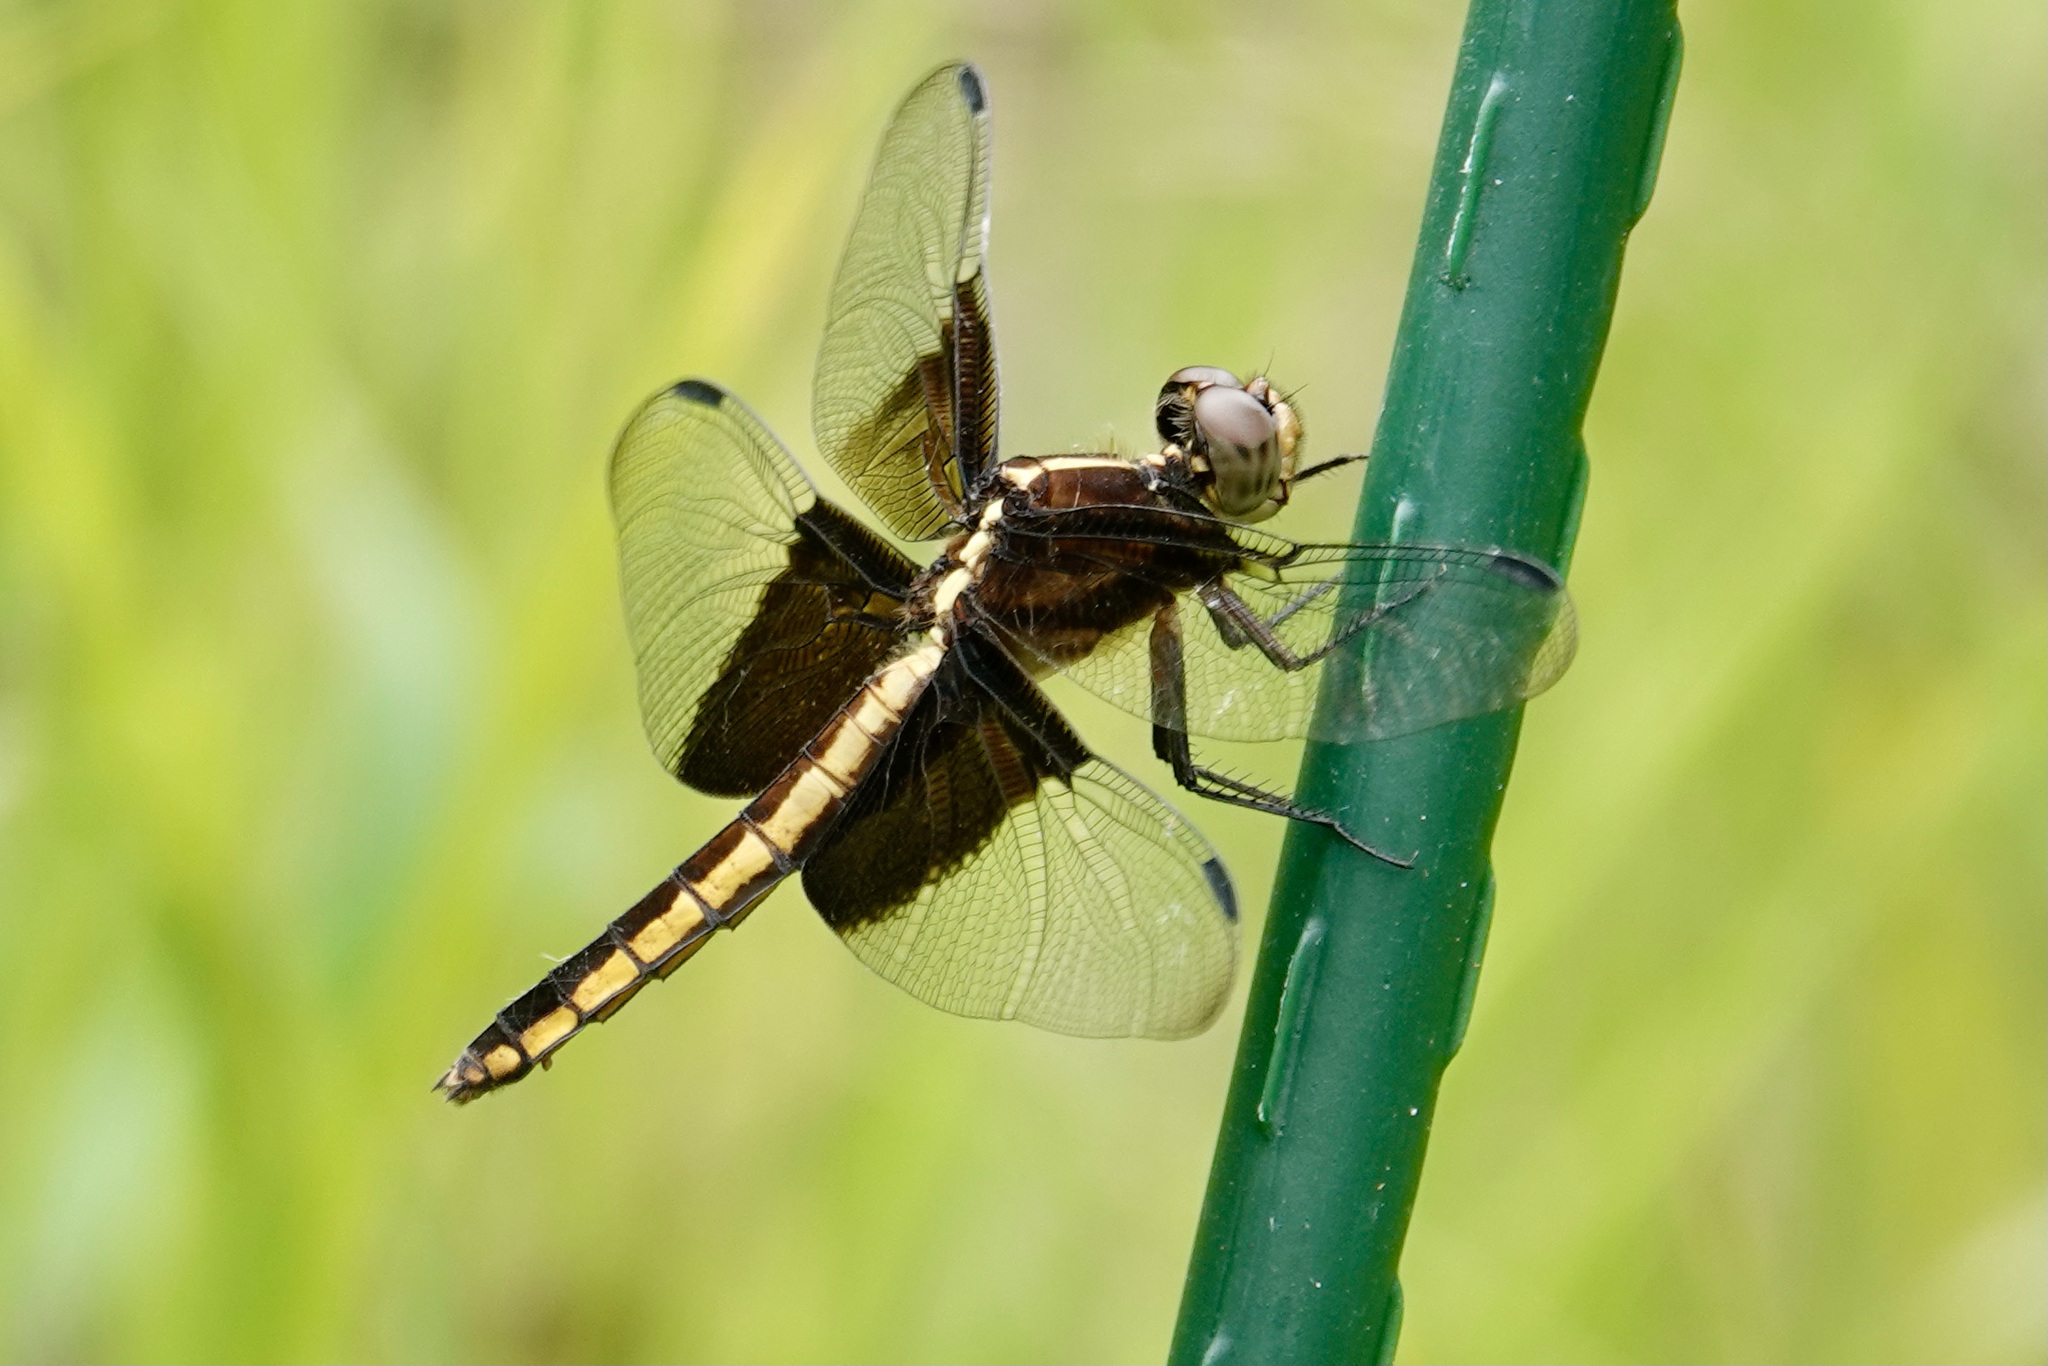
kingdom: Animalia
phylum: Arthropoda
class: Insecta
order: Odonata
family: Libellulidae
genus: Libellula
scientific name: Libellula luctuosa
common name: Widow skimmer
